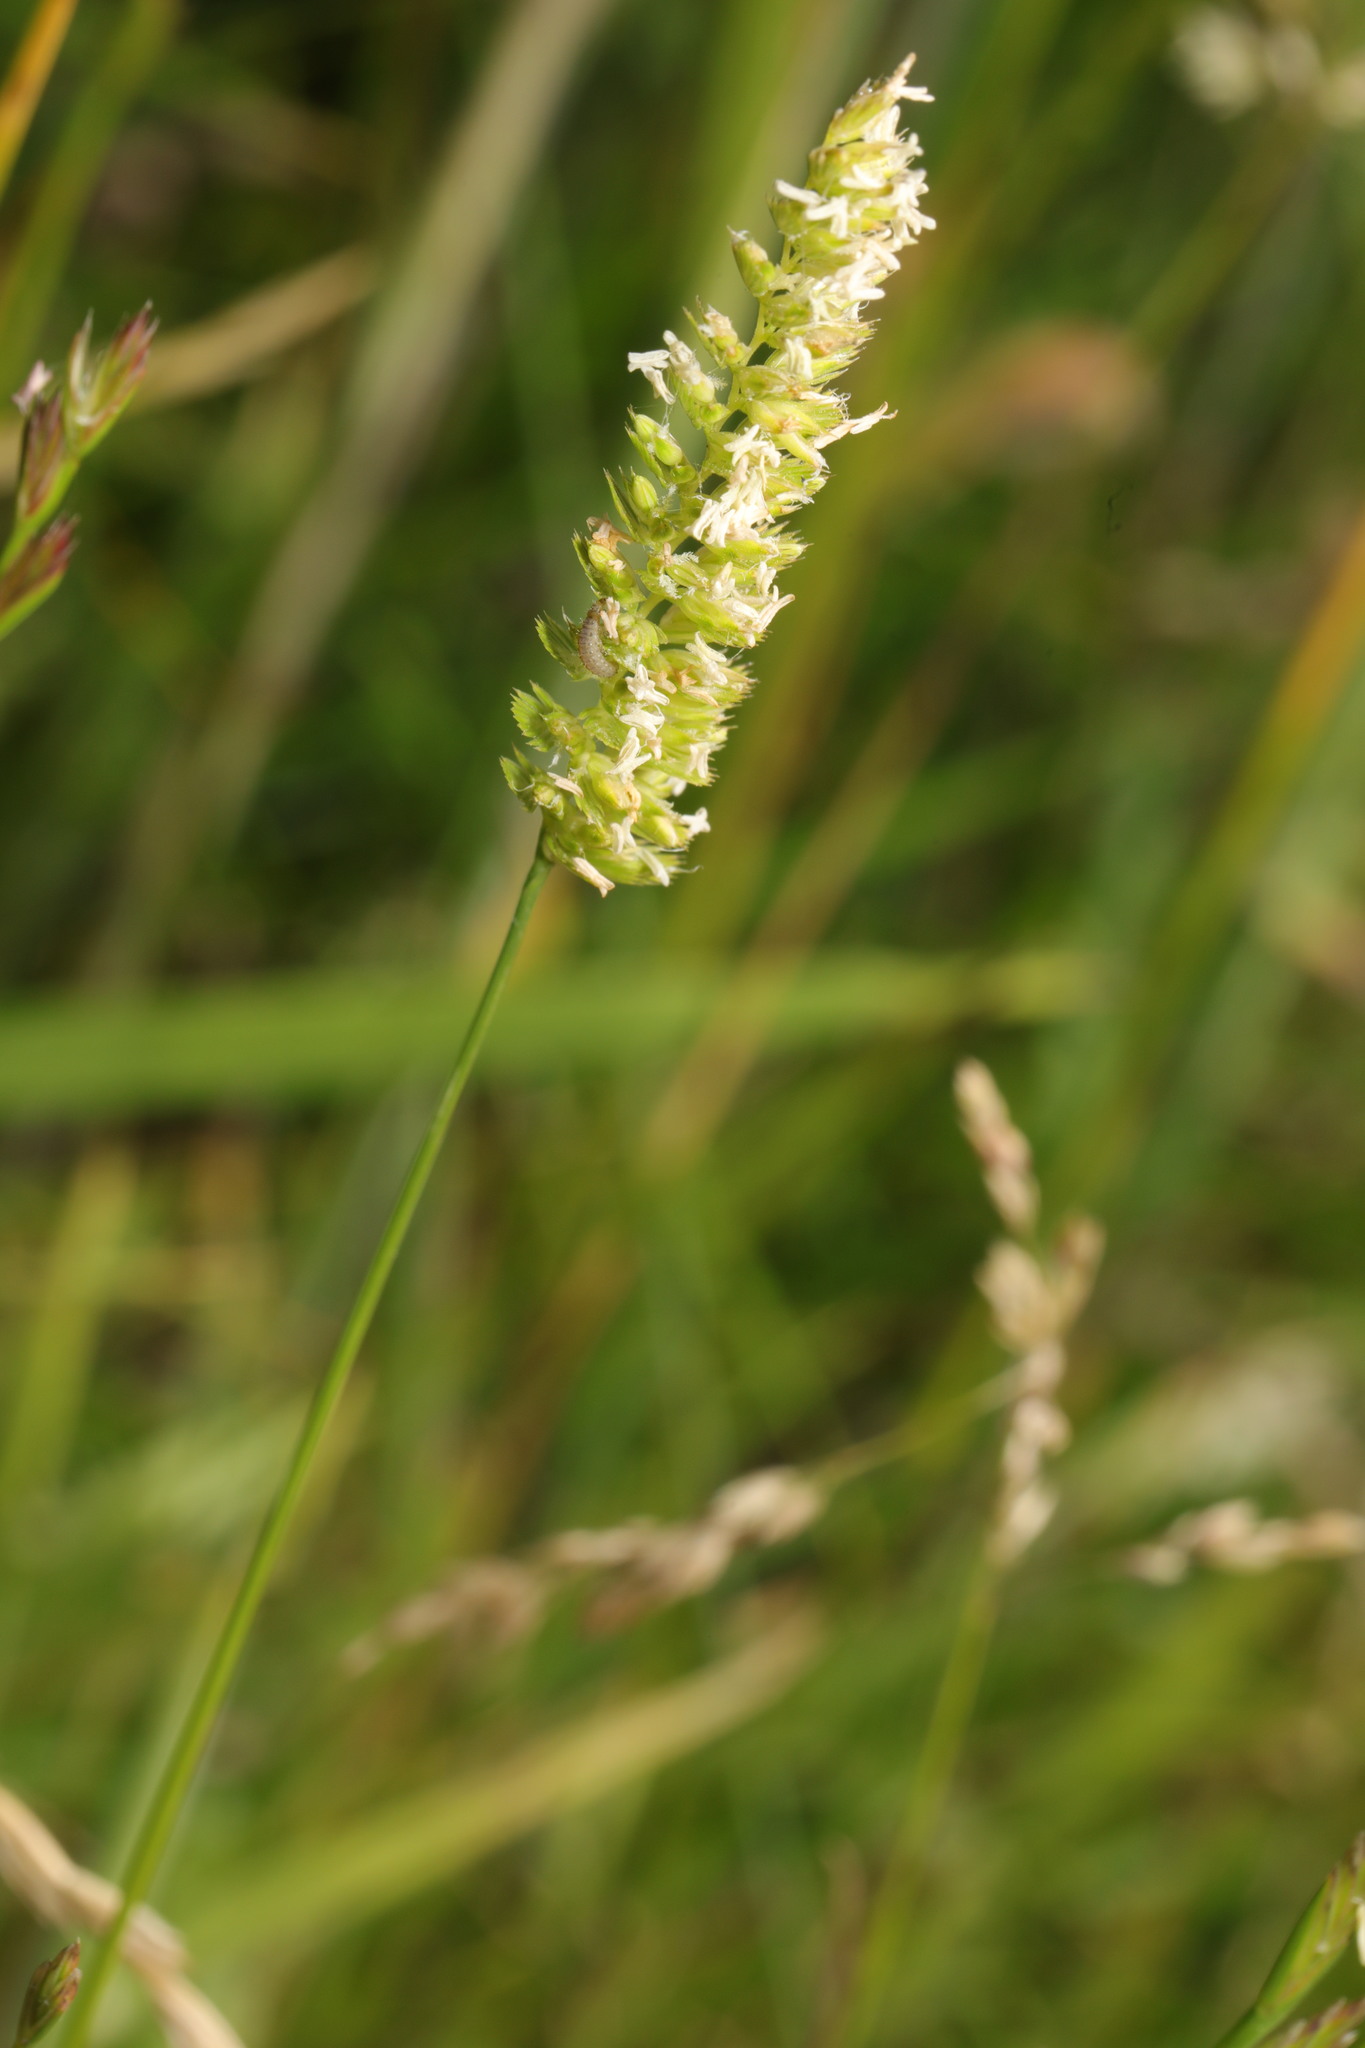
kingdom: Plantae
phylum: Tracheophyta
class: Liliopsida
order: Poales
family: Poaceae
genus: Cynosurus
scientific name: Cynosurus cristatus
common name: Crested dog's-tail
